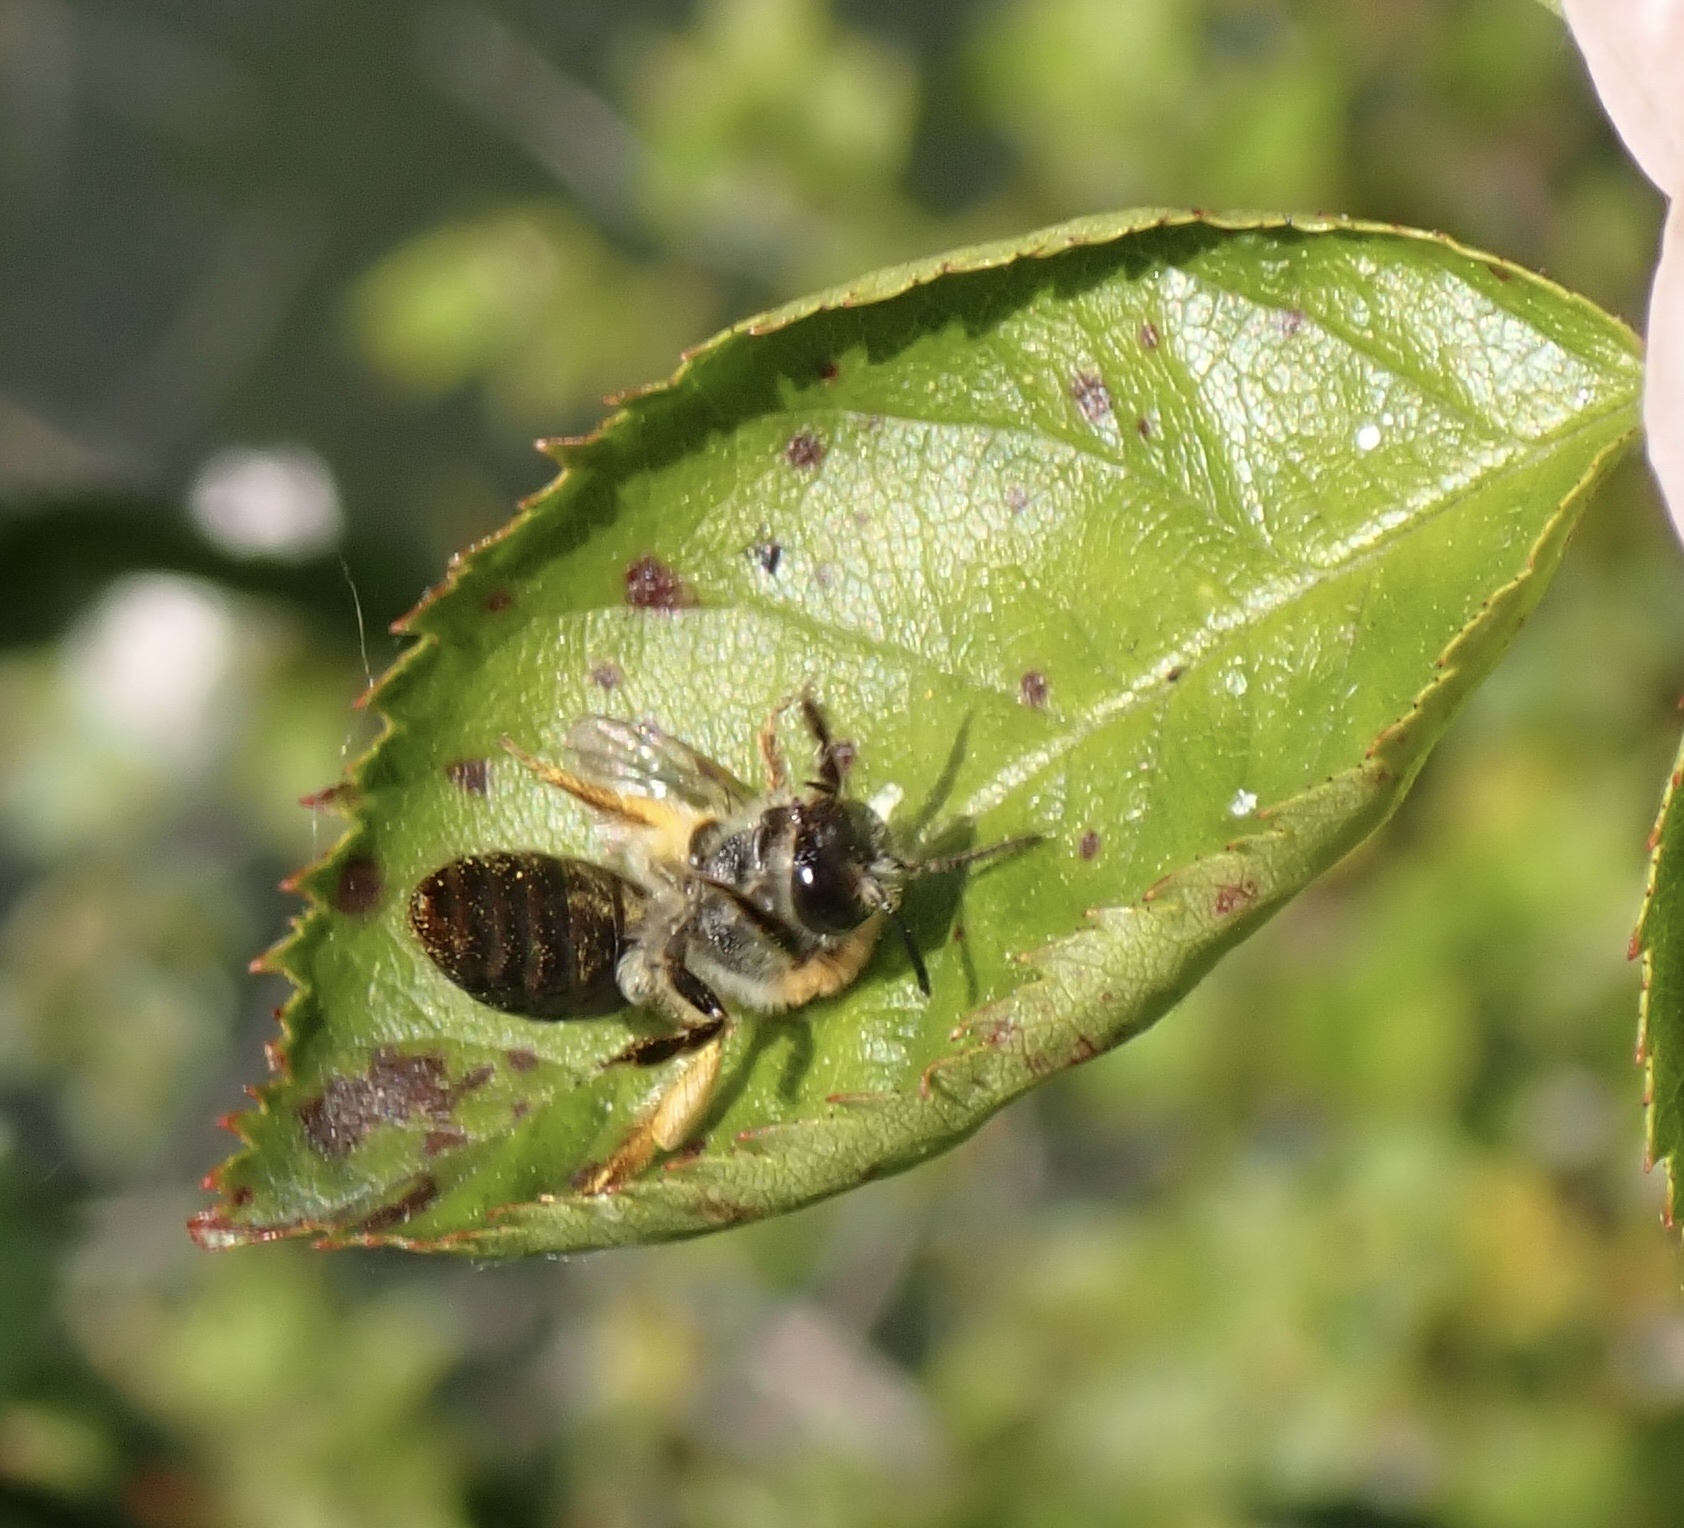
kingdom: Animalia
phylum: Arthropoda
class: Insecta
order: Hymenoptera
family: Andrenidae
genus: Andrena
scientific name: Andrena haemorrhoa
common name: Early mining bee
